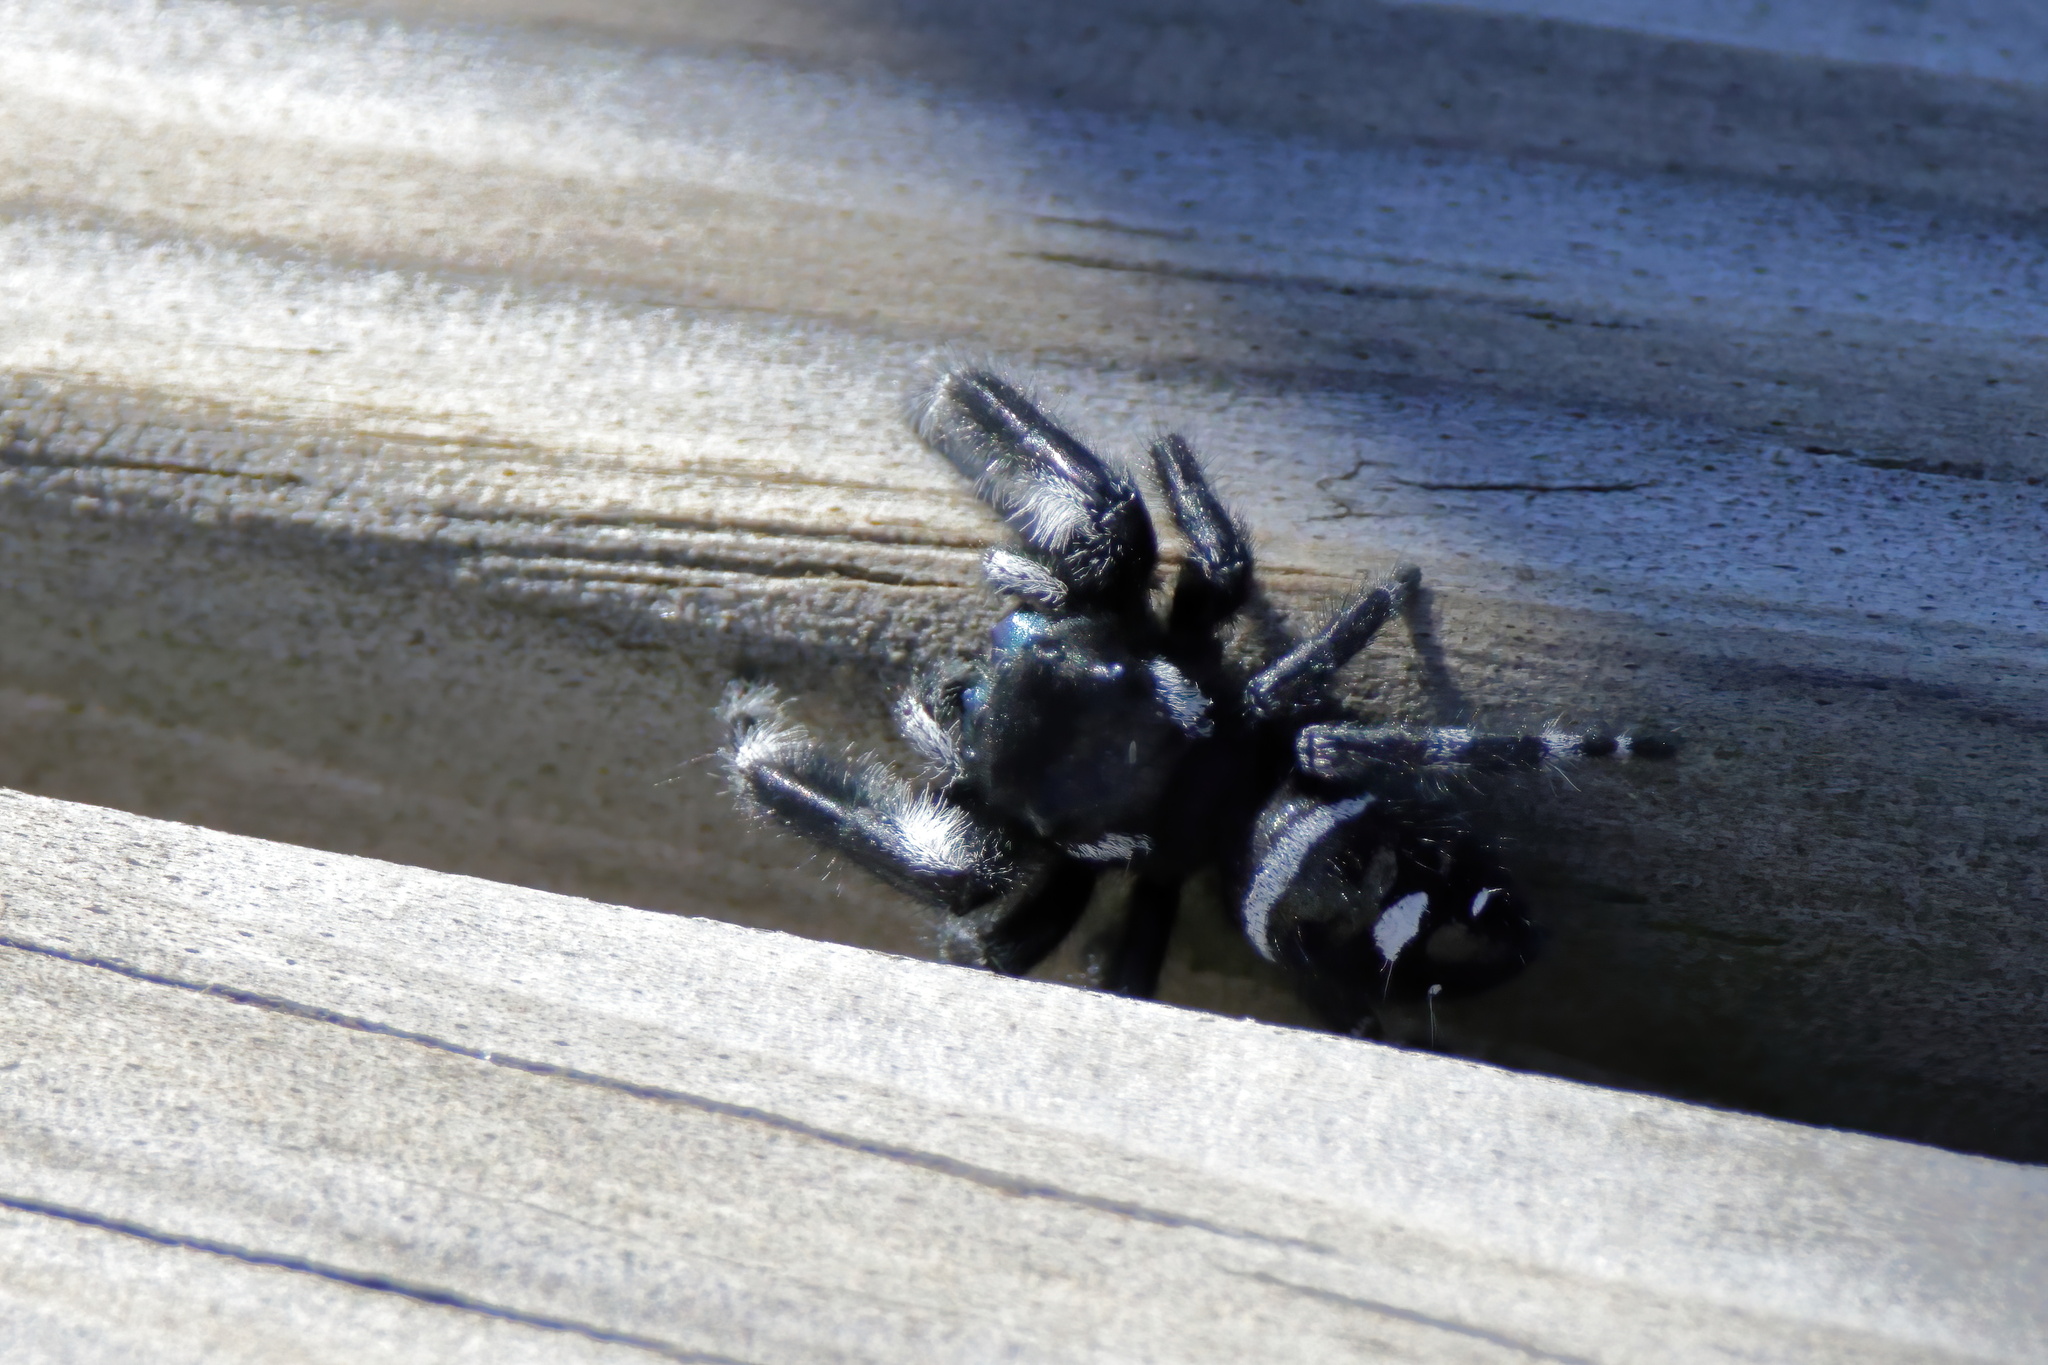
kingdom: Animalia
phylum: Arthropoda
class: Arachnida
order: Araneae
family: Salticidae
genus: Phidippus
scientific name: Phidippus audax
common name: Bold jumper
